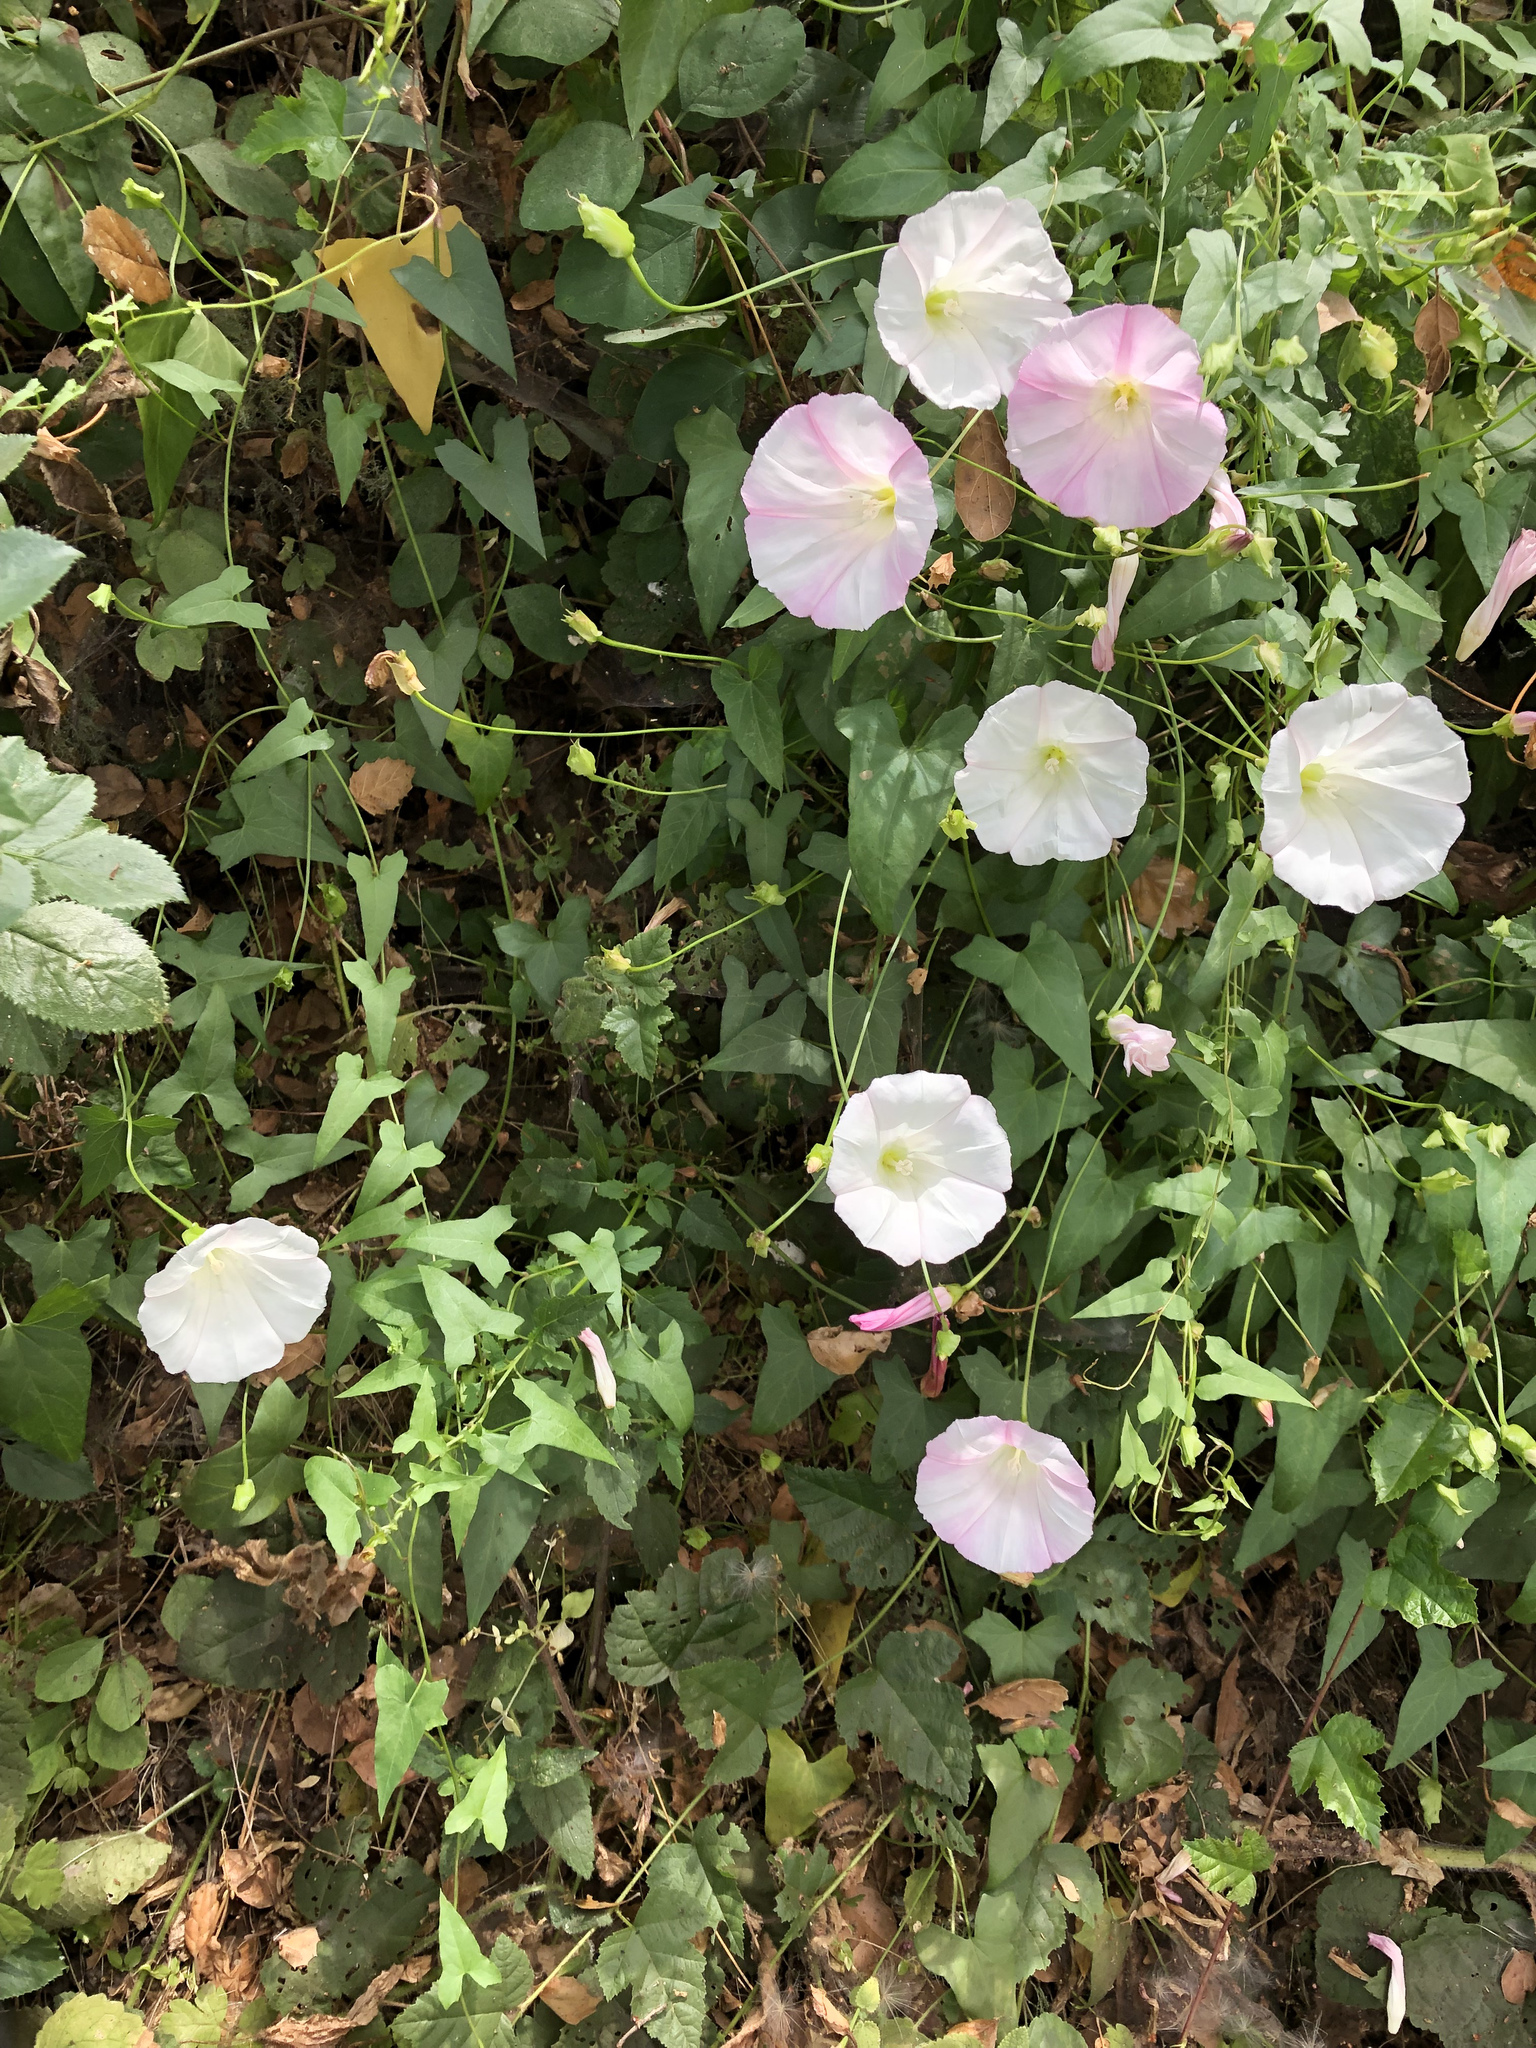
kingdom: Plantae
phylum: Tracheophyta
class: Magnoliopsida
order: Solanales
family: Convolvulaceae
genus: Calystegia
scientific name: Calystegia macrostegia
